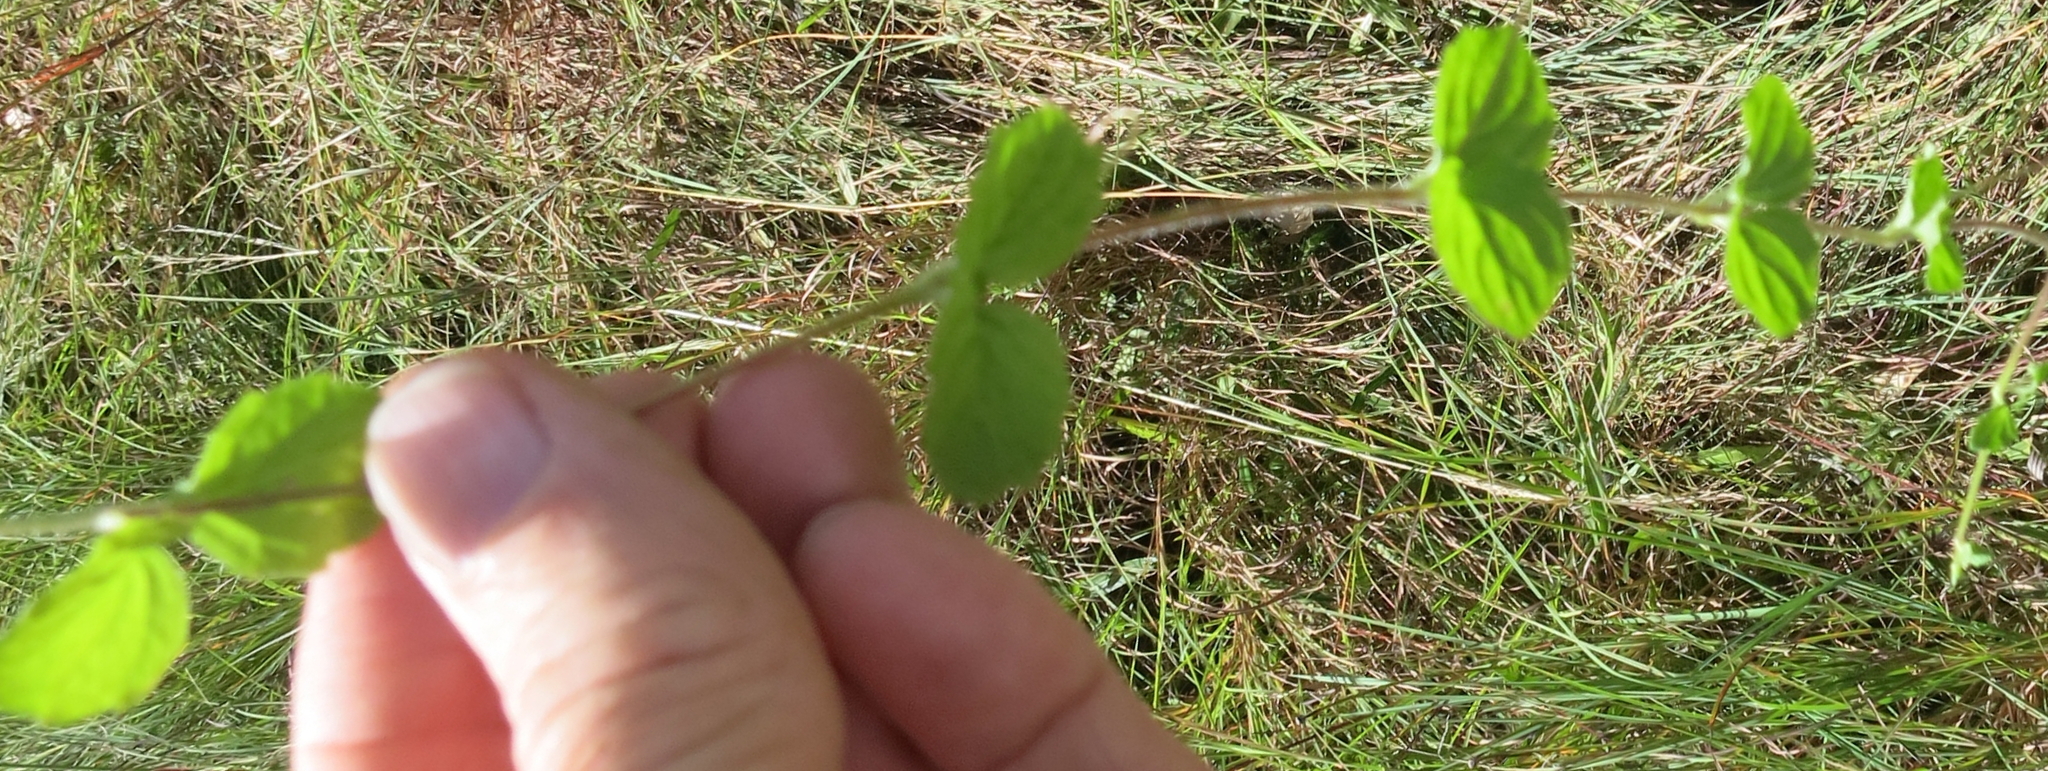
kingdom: Plantae
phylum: Tracheophyta
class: Magnoliopsida
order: Lamiales
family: Scrophulariaceae
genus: Diclis
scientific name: Diclis reptans
